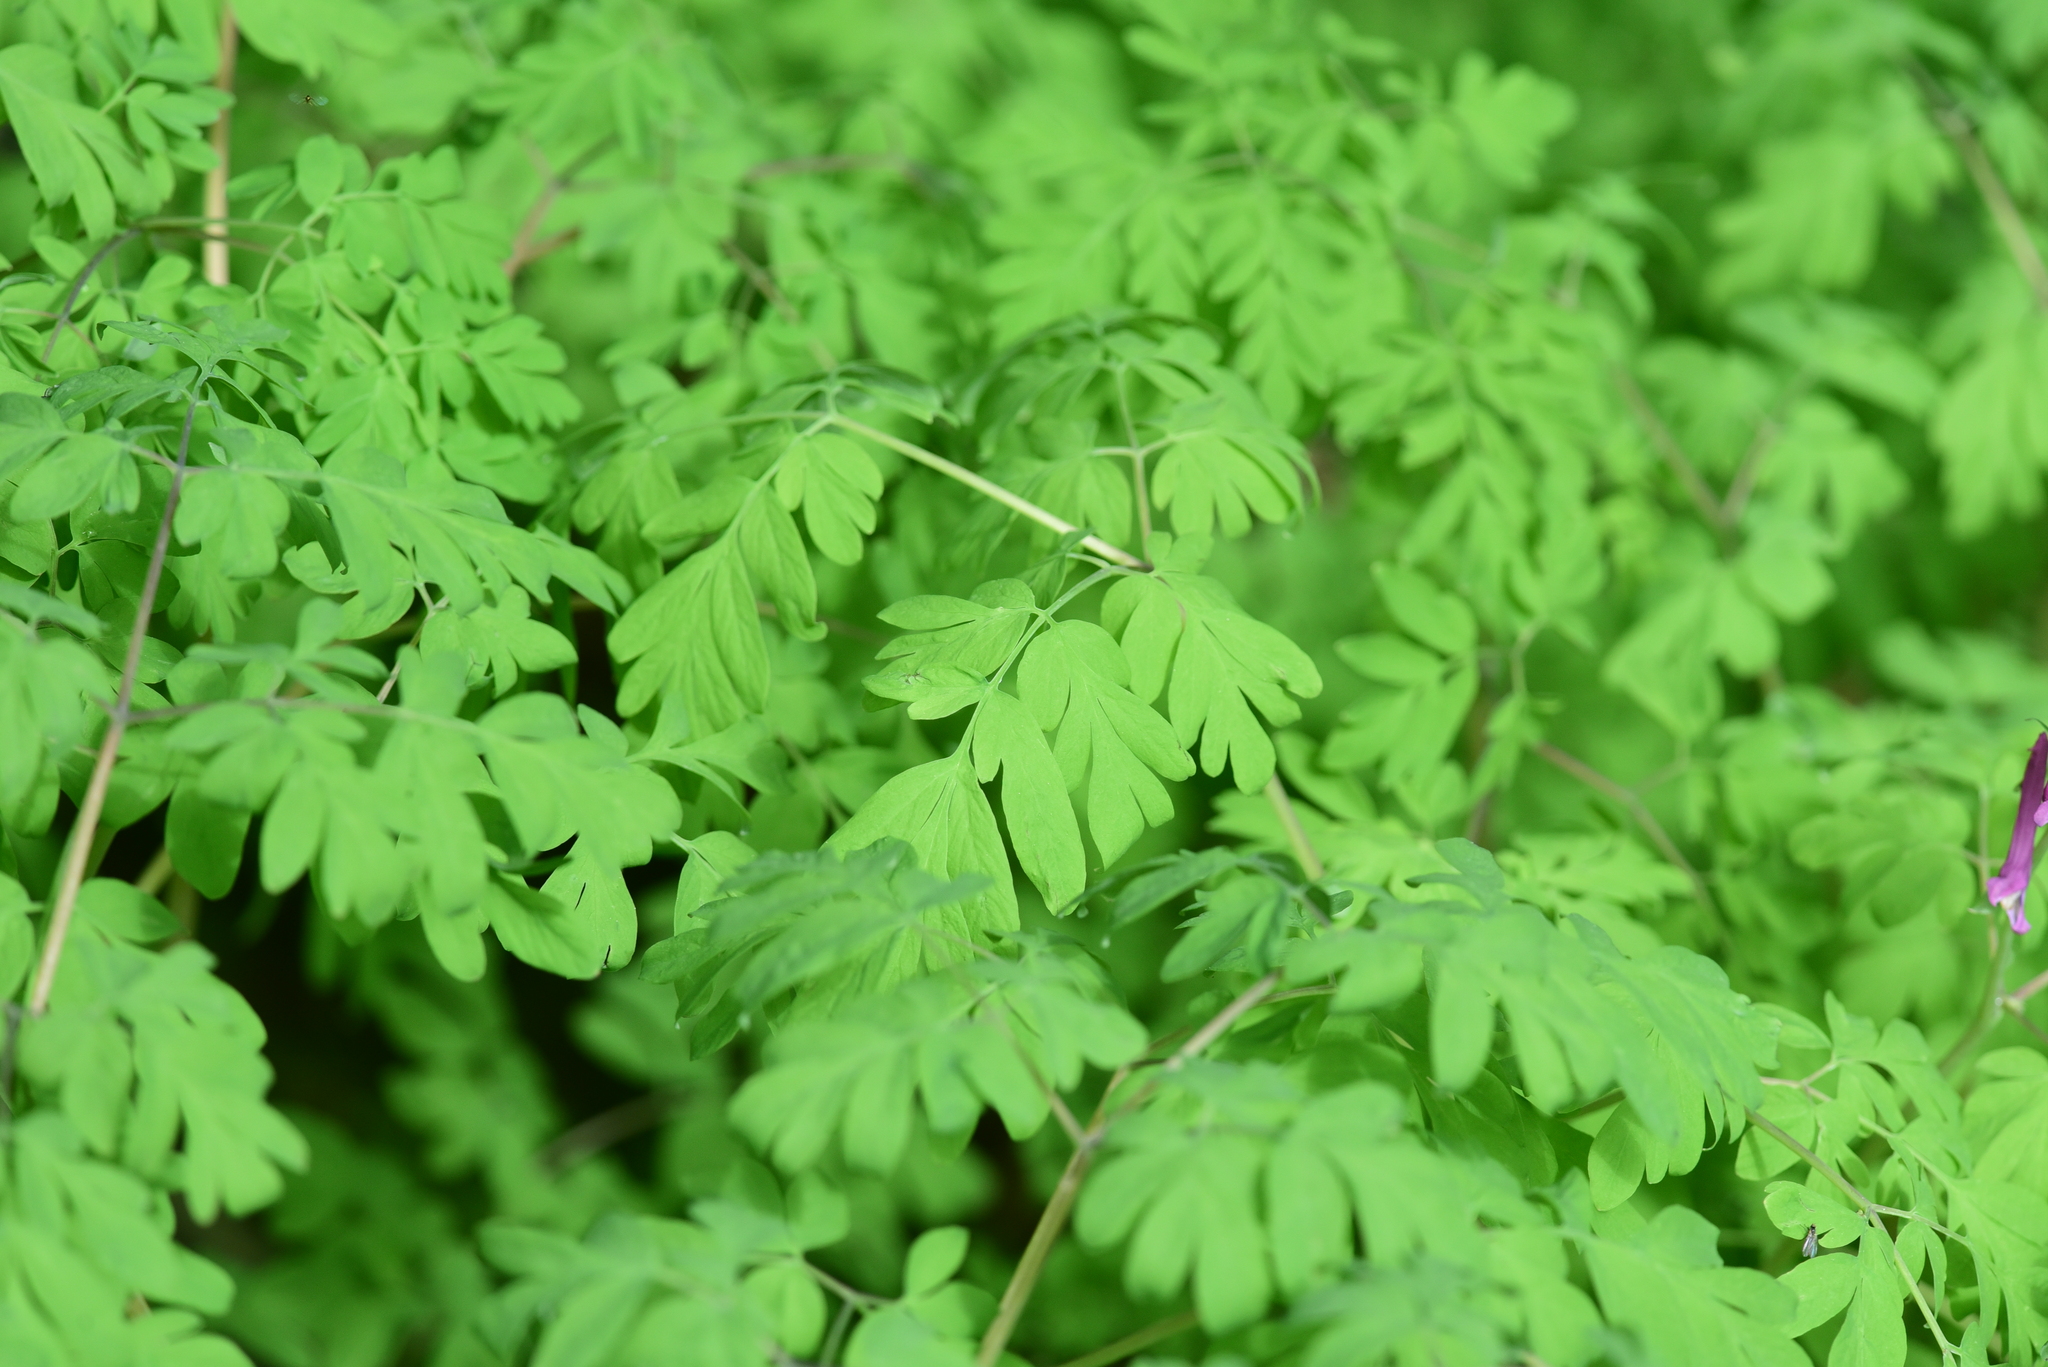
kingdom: Plantae
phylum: Tracheophyta
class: Magnoliopsida
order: Ranunculales
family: Papaveraceae
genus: Corydalis
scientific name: Corydalis scouleri
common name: Scouler's corydalis
